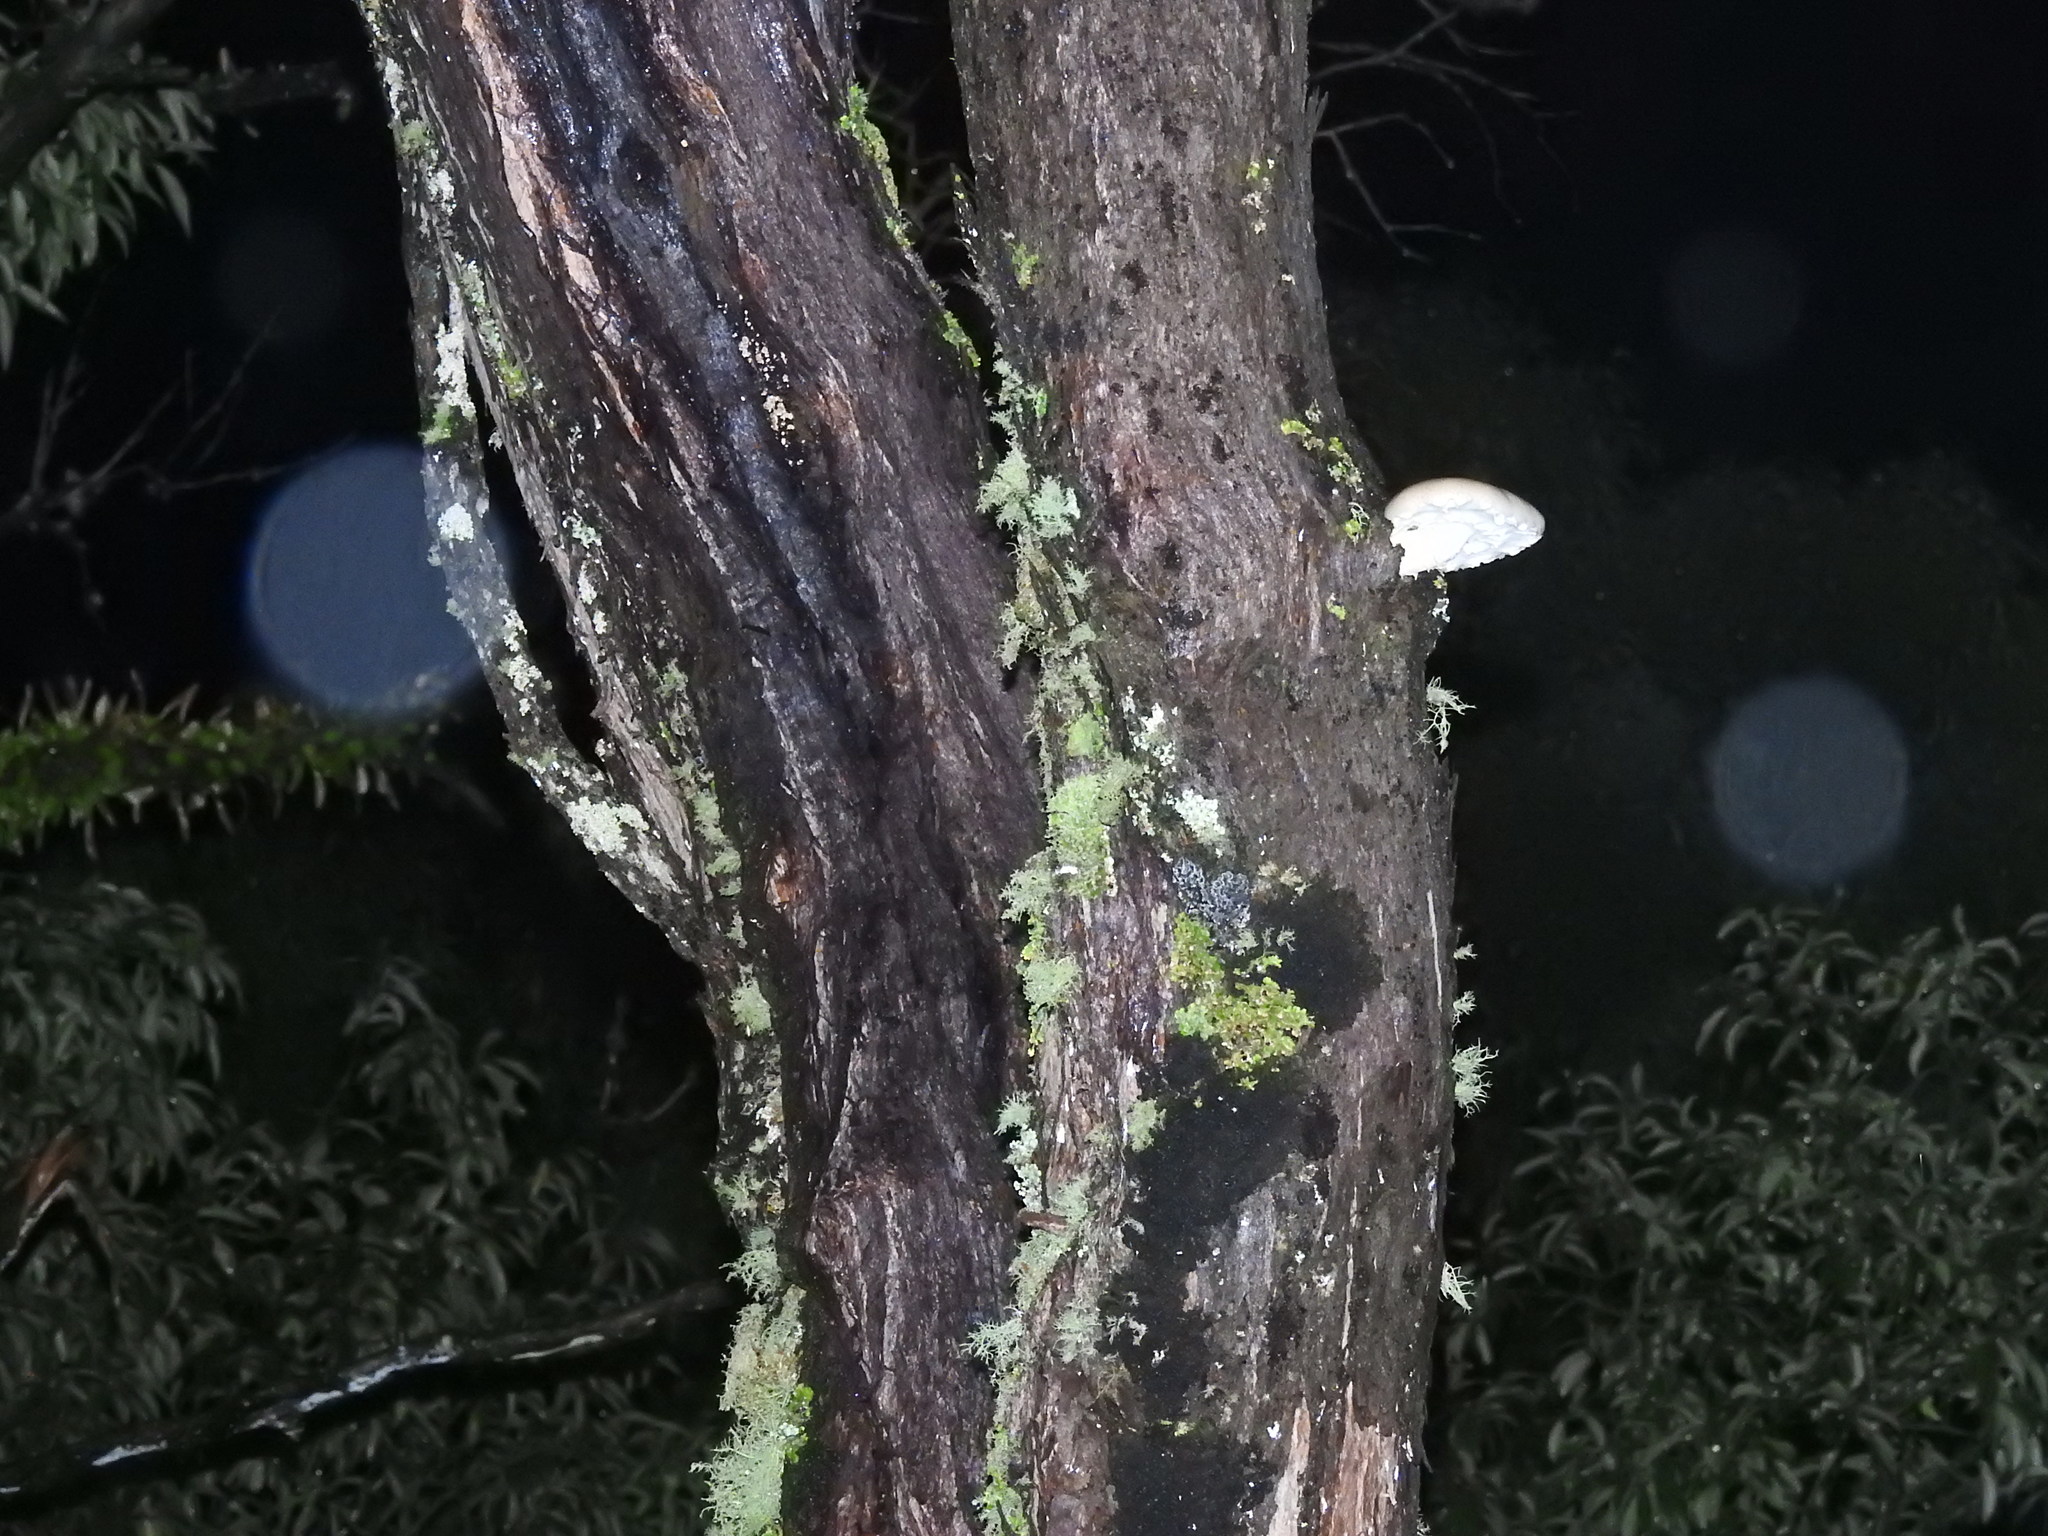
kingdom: Fungi
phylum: Basidiomycota
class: Agaricomycetes
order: Agaricales
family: Tubariaceae
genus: Cyclocybe
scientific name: Cyclocybe parasitica
